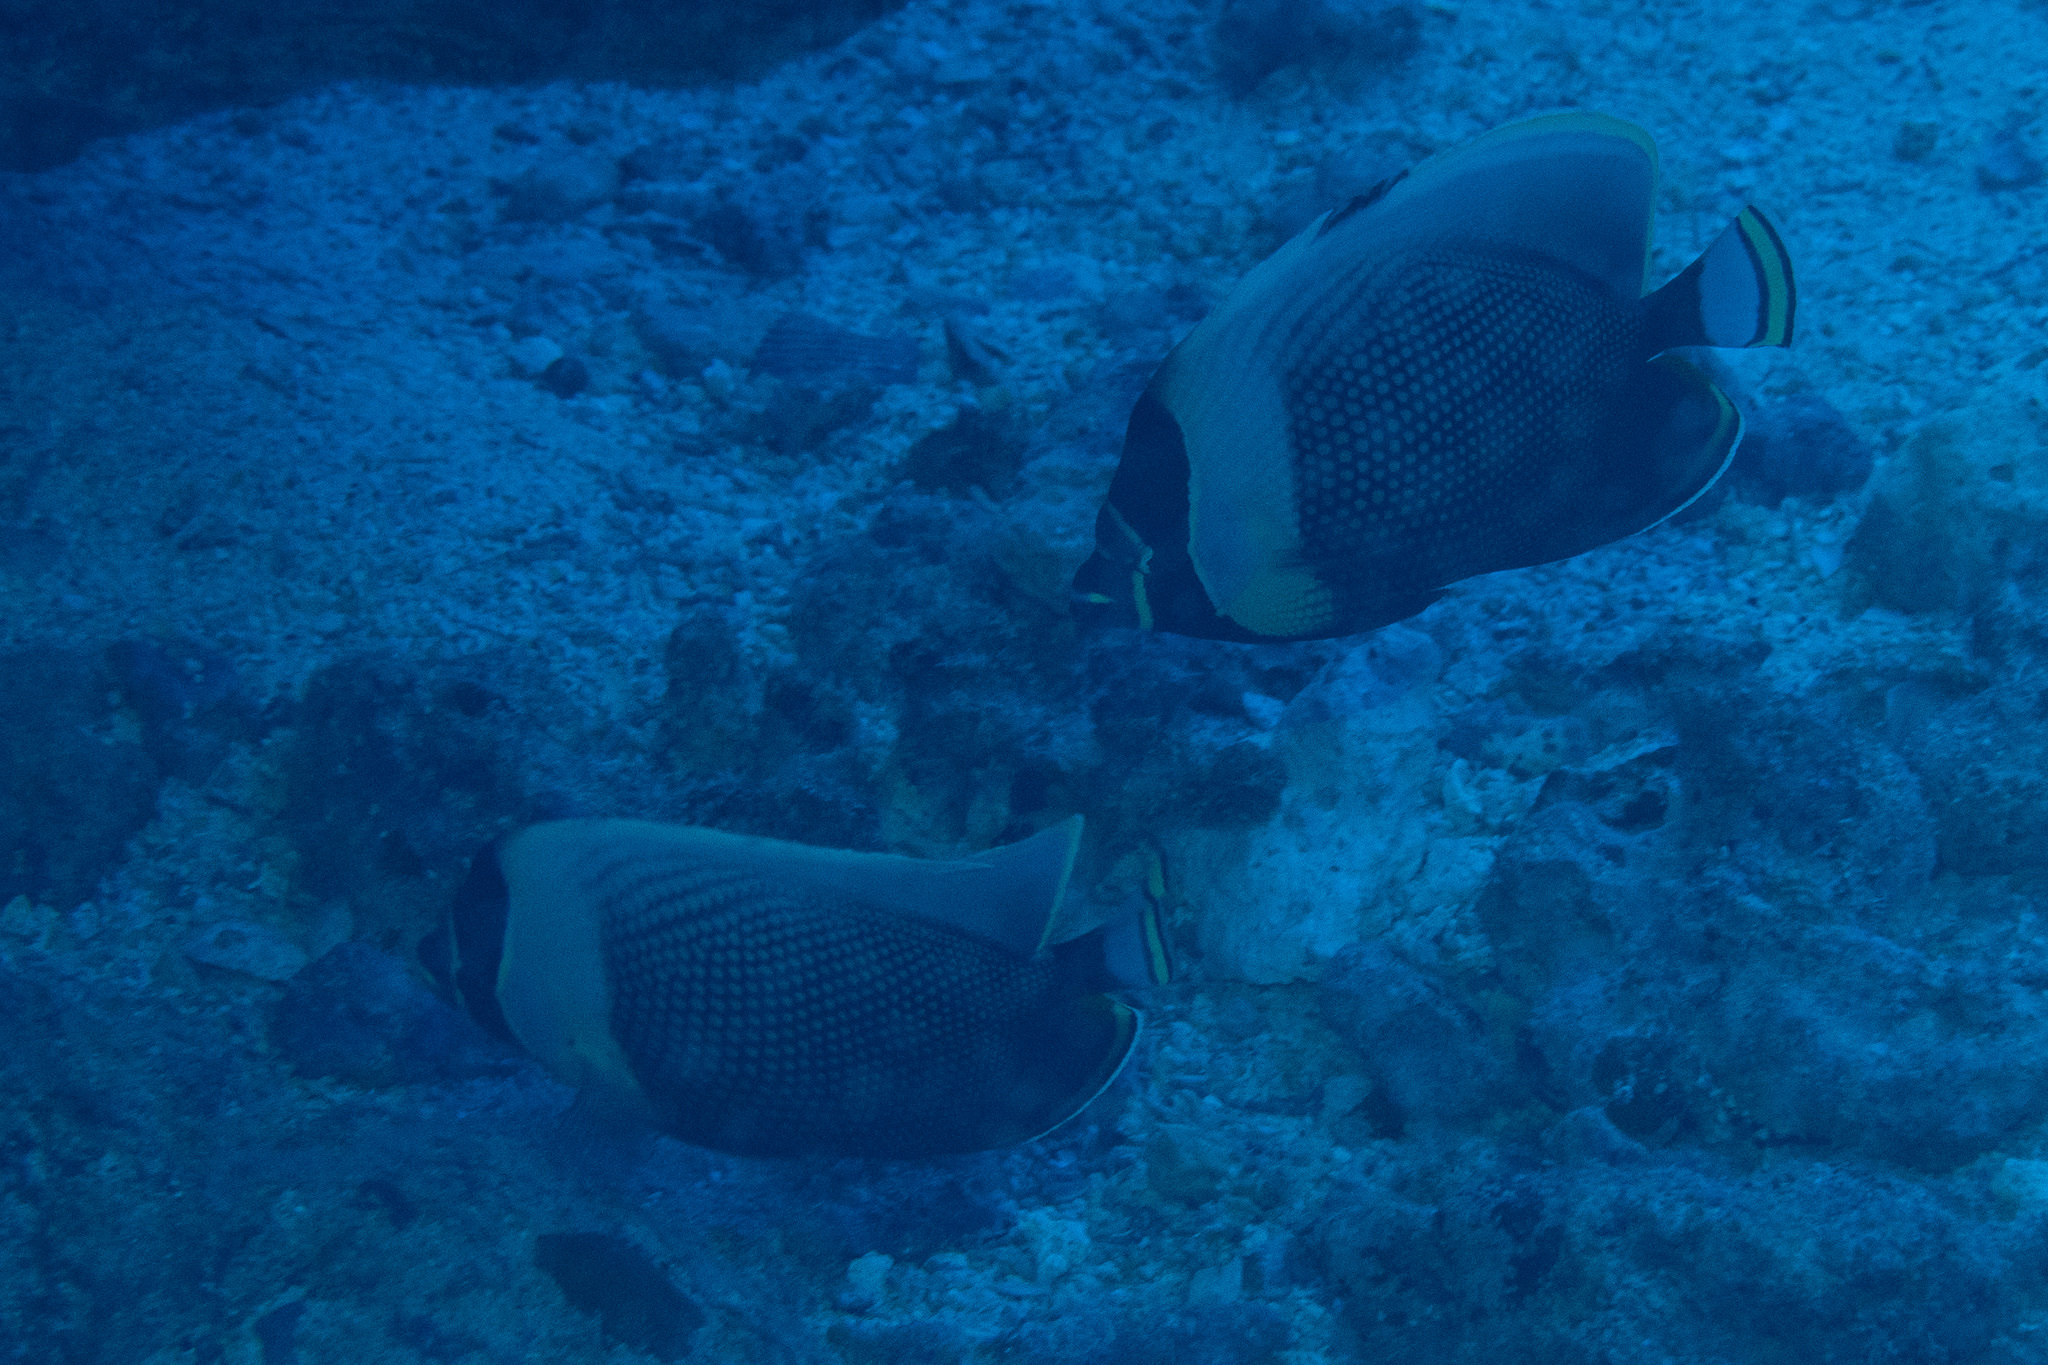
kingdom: Animalia
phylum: Chordata
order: Perciformes
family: Chaetodontidae
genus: Chaetodon
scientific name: Chaetodon reticulatus
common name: Reticulated butterflyfish
